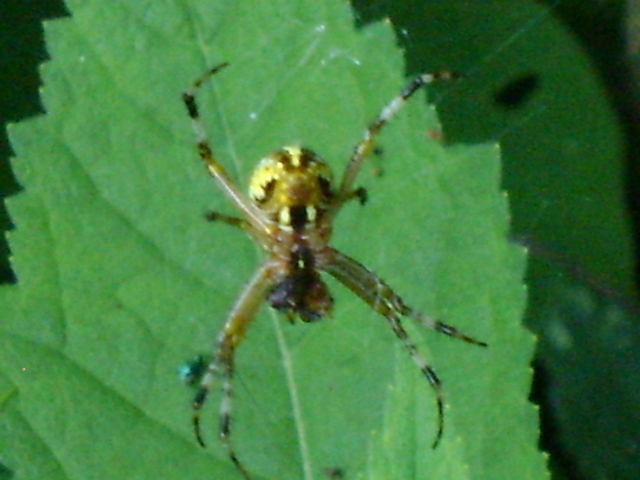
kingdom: Animalia
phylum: Arthropoda
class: Arachnida
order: Araneae
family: Araneidae
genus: Neoscona
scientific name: Neoscona oaxacensis
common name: Orb weavers
